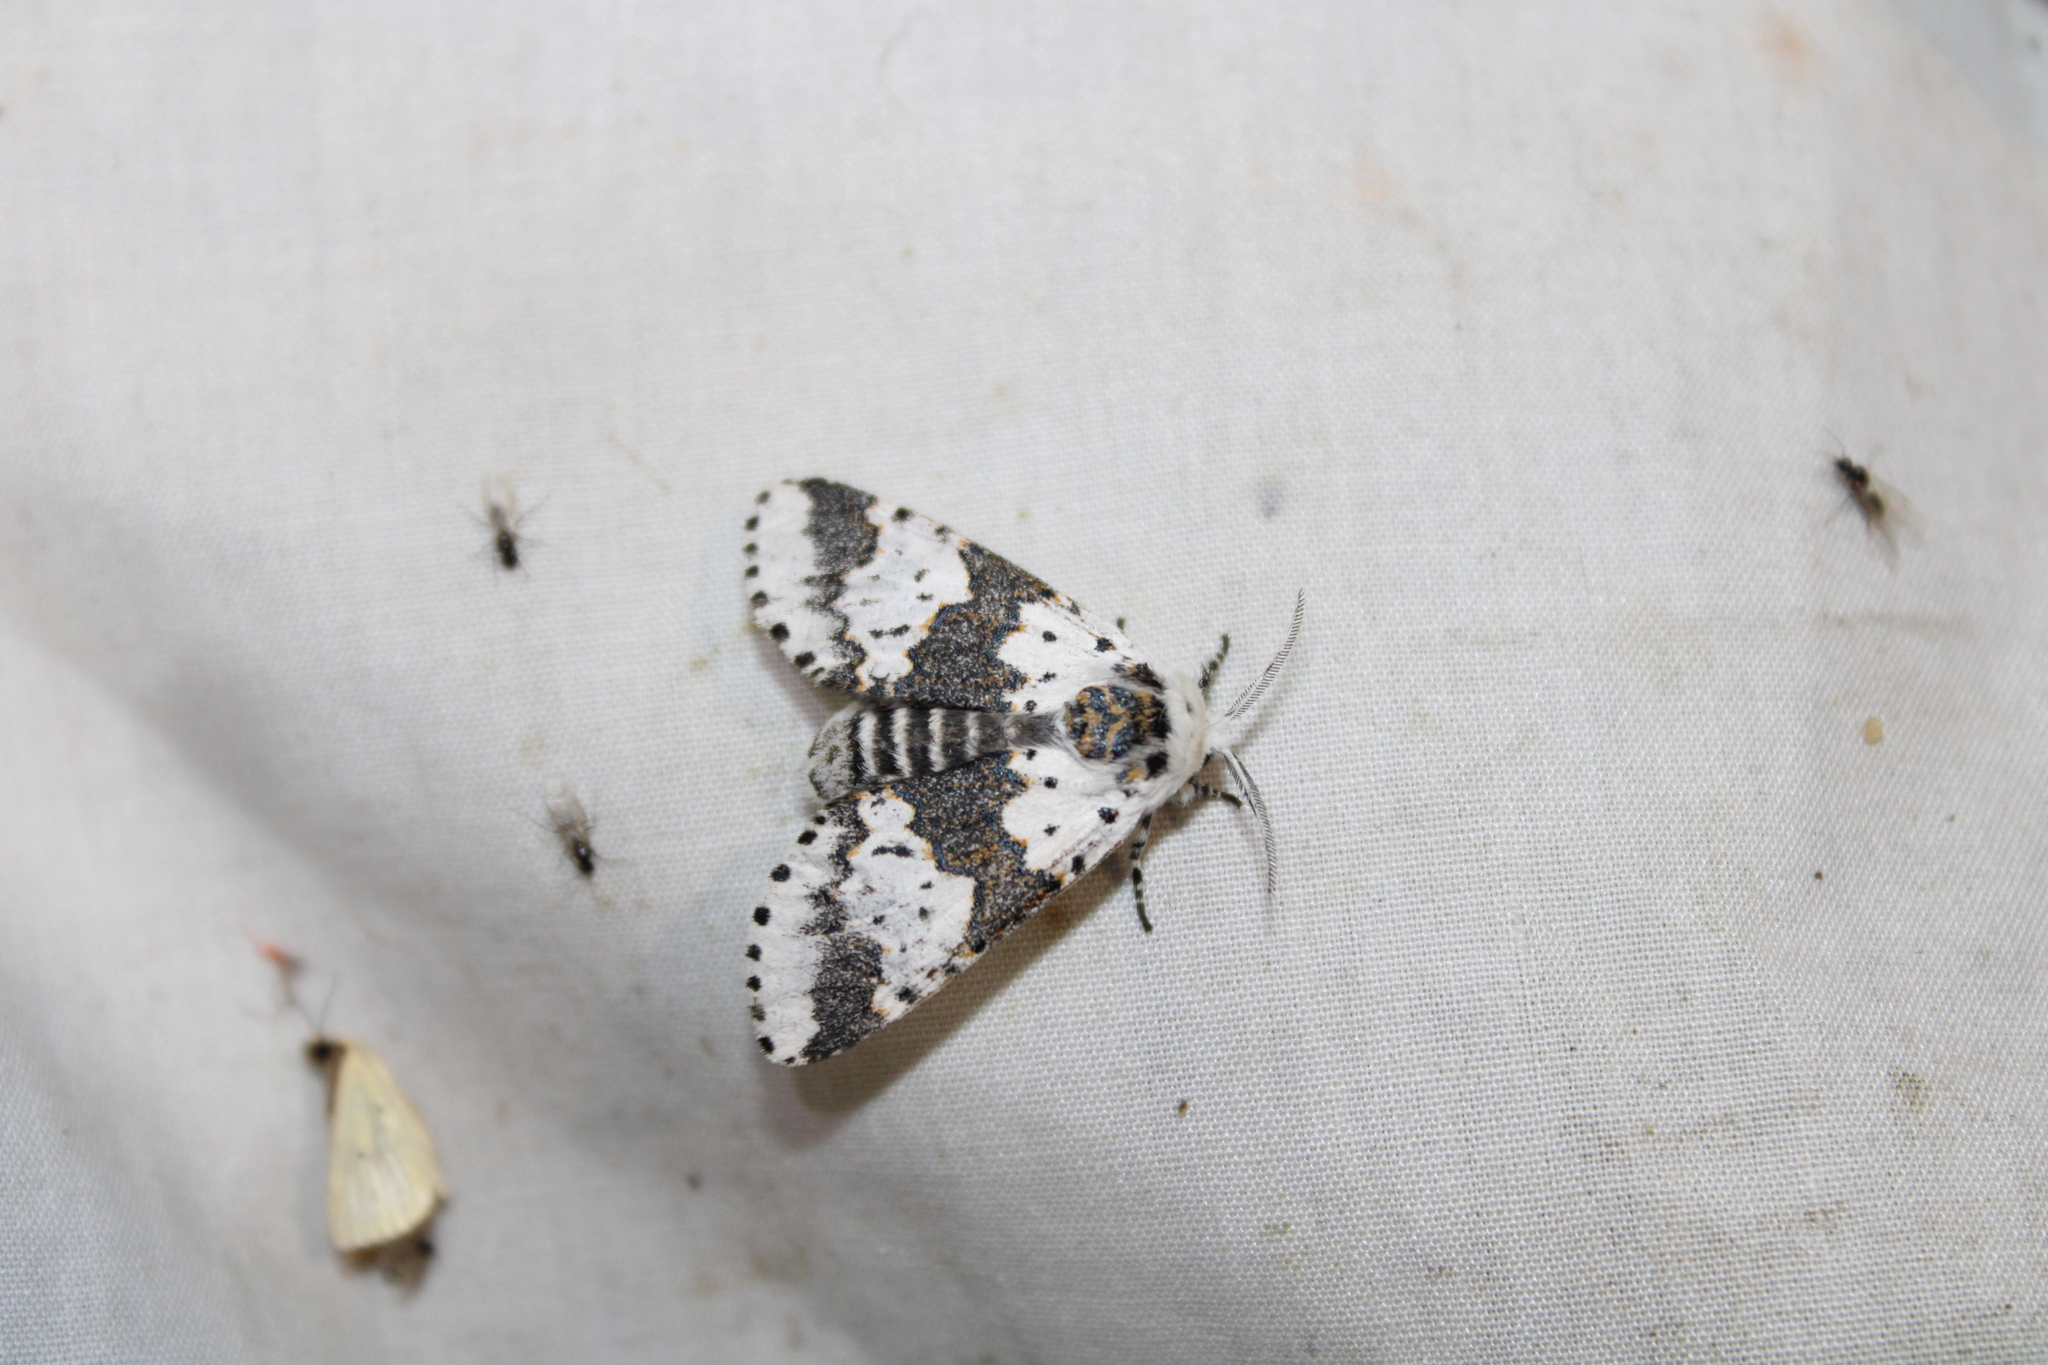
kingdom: Animalia
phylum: Arthropoda
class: Insecta
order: Lepidoptera
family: Notodontidae
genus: Furcula
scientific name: Furcula borealis
